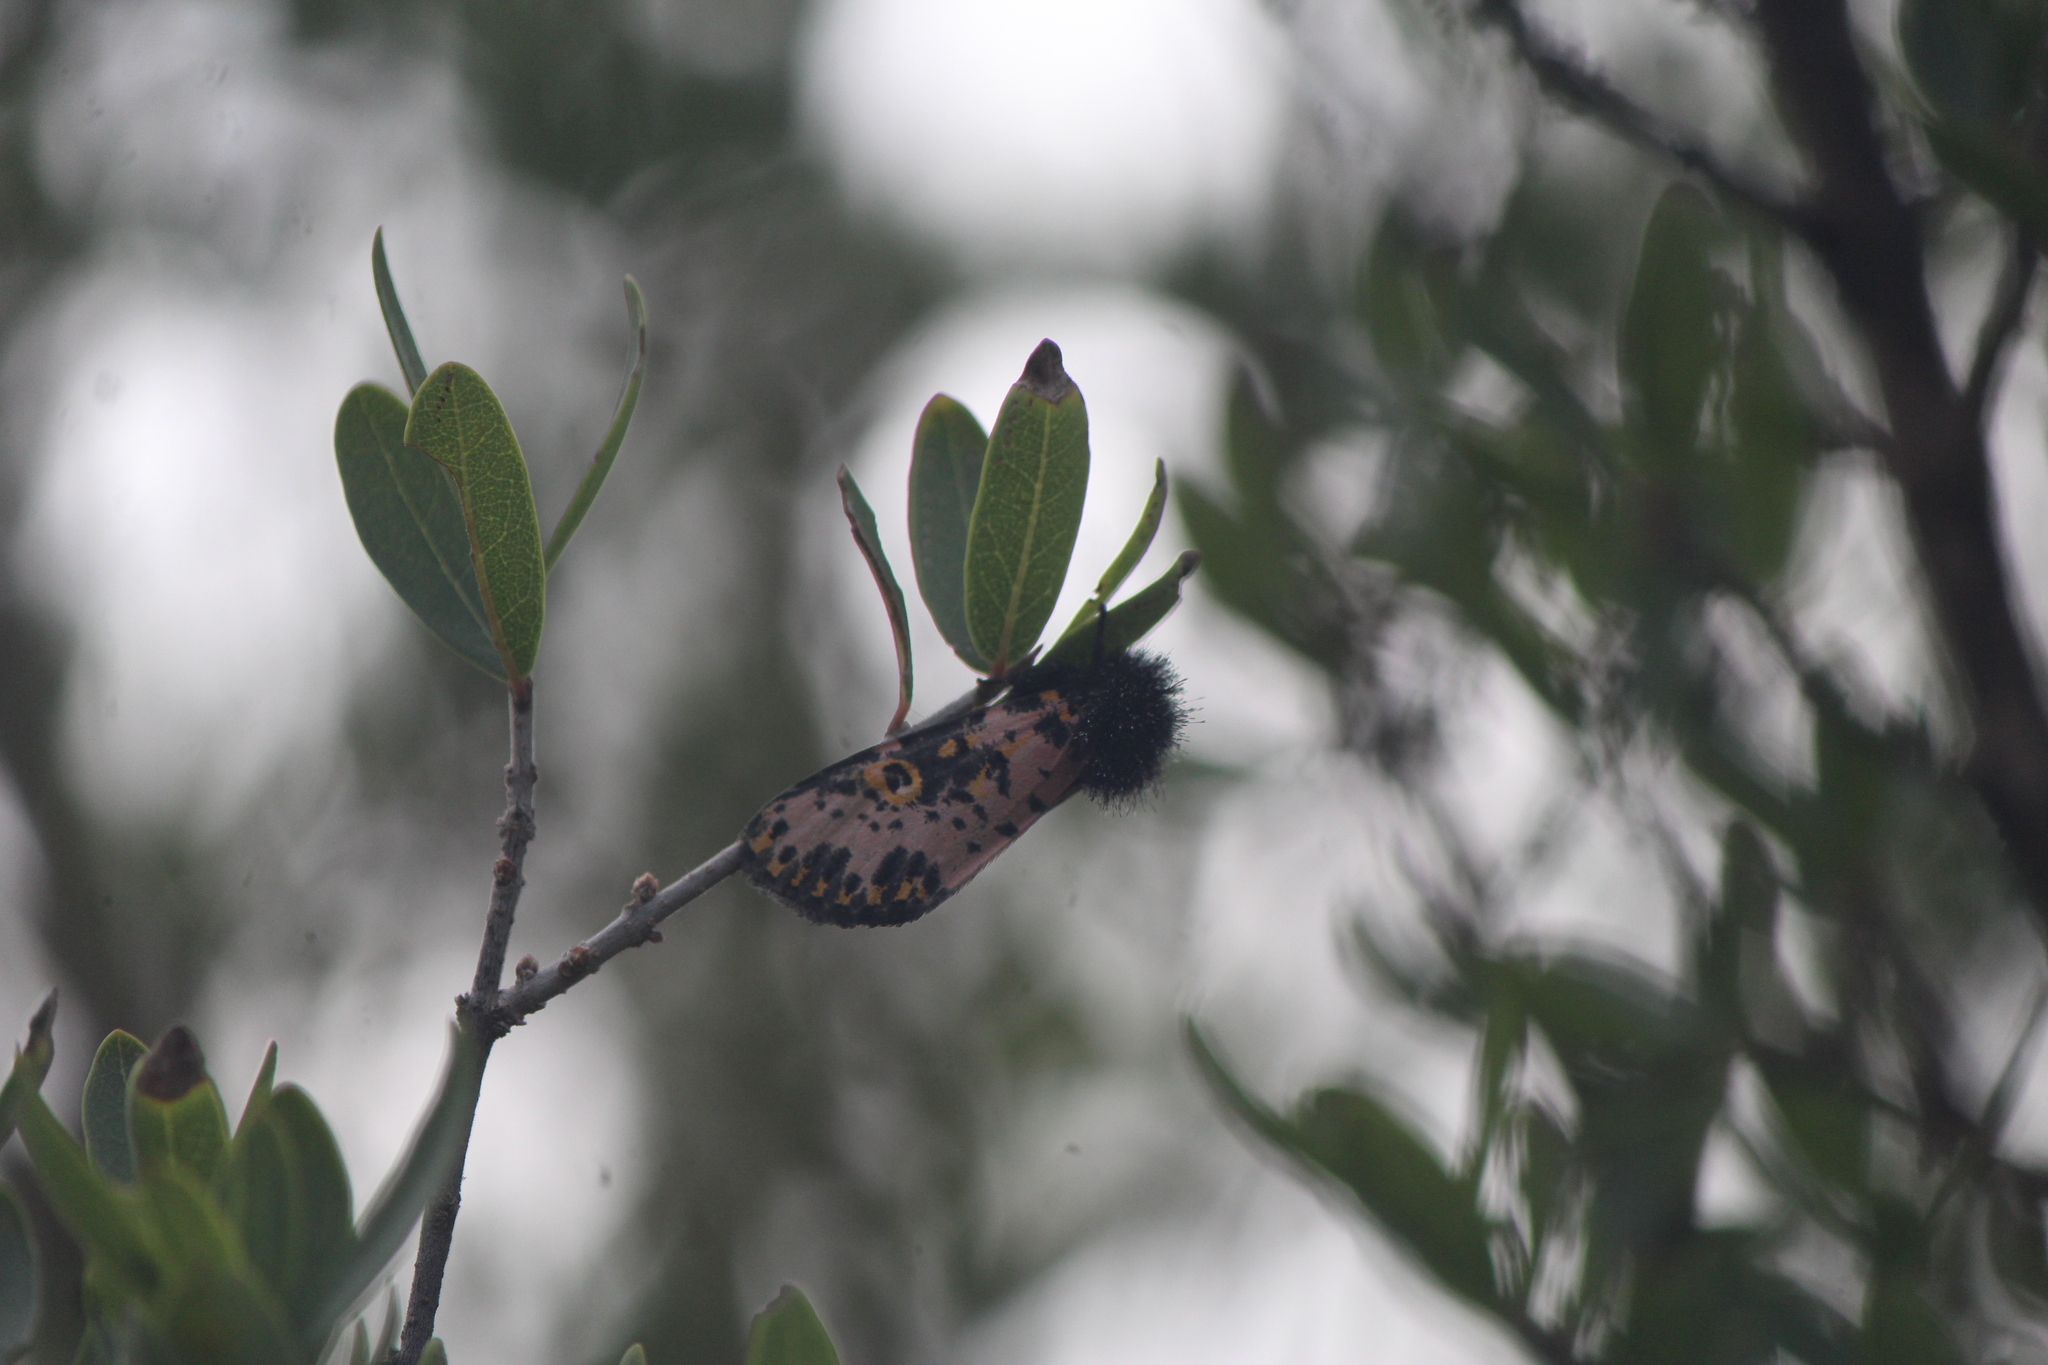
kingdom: Animalia
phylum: Arthropoda
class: Insecta
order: Lepidoptera
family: Noctuidae
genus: Xanthopastis
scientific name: Xanthopastis moctezuma
